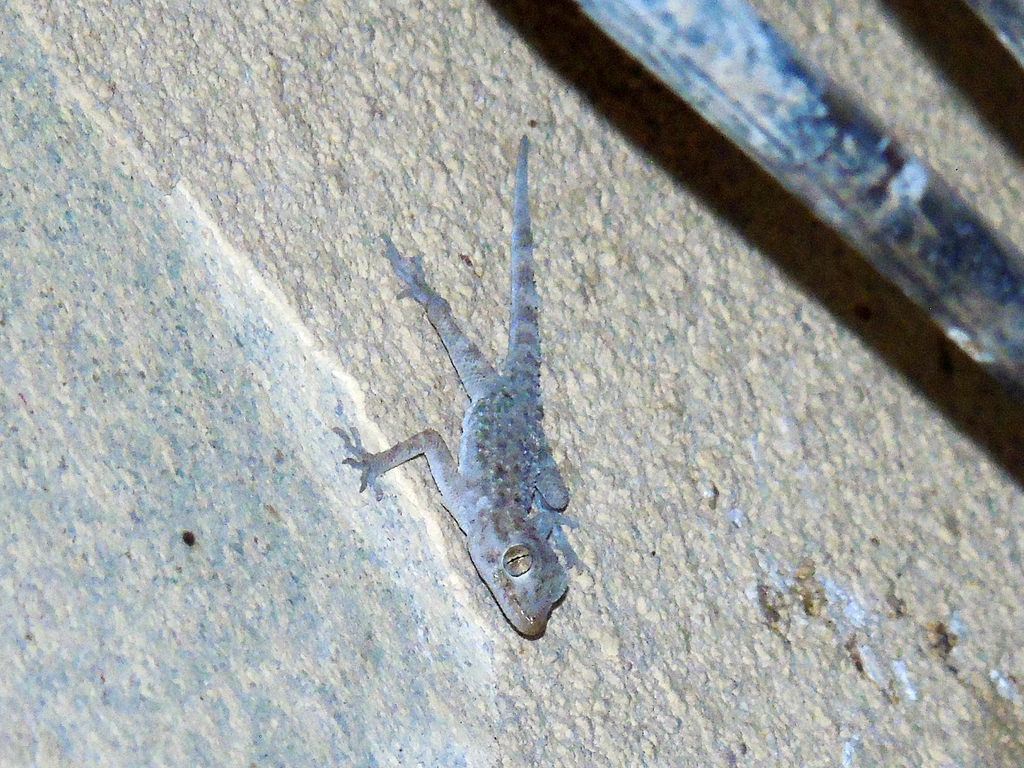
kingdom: Animalia
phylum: Chordata
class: Squamata
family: Gekkonidae
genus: Cyrtopodion
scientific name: Cyrtopodion scabrum
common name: Rough-tailed gecko
